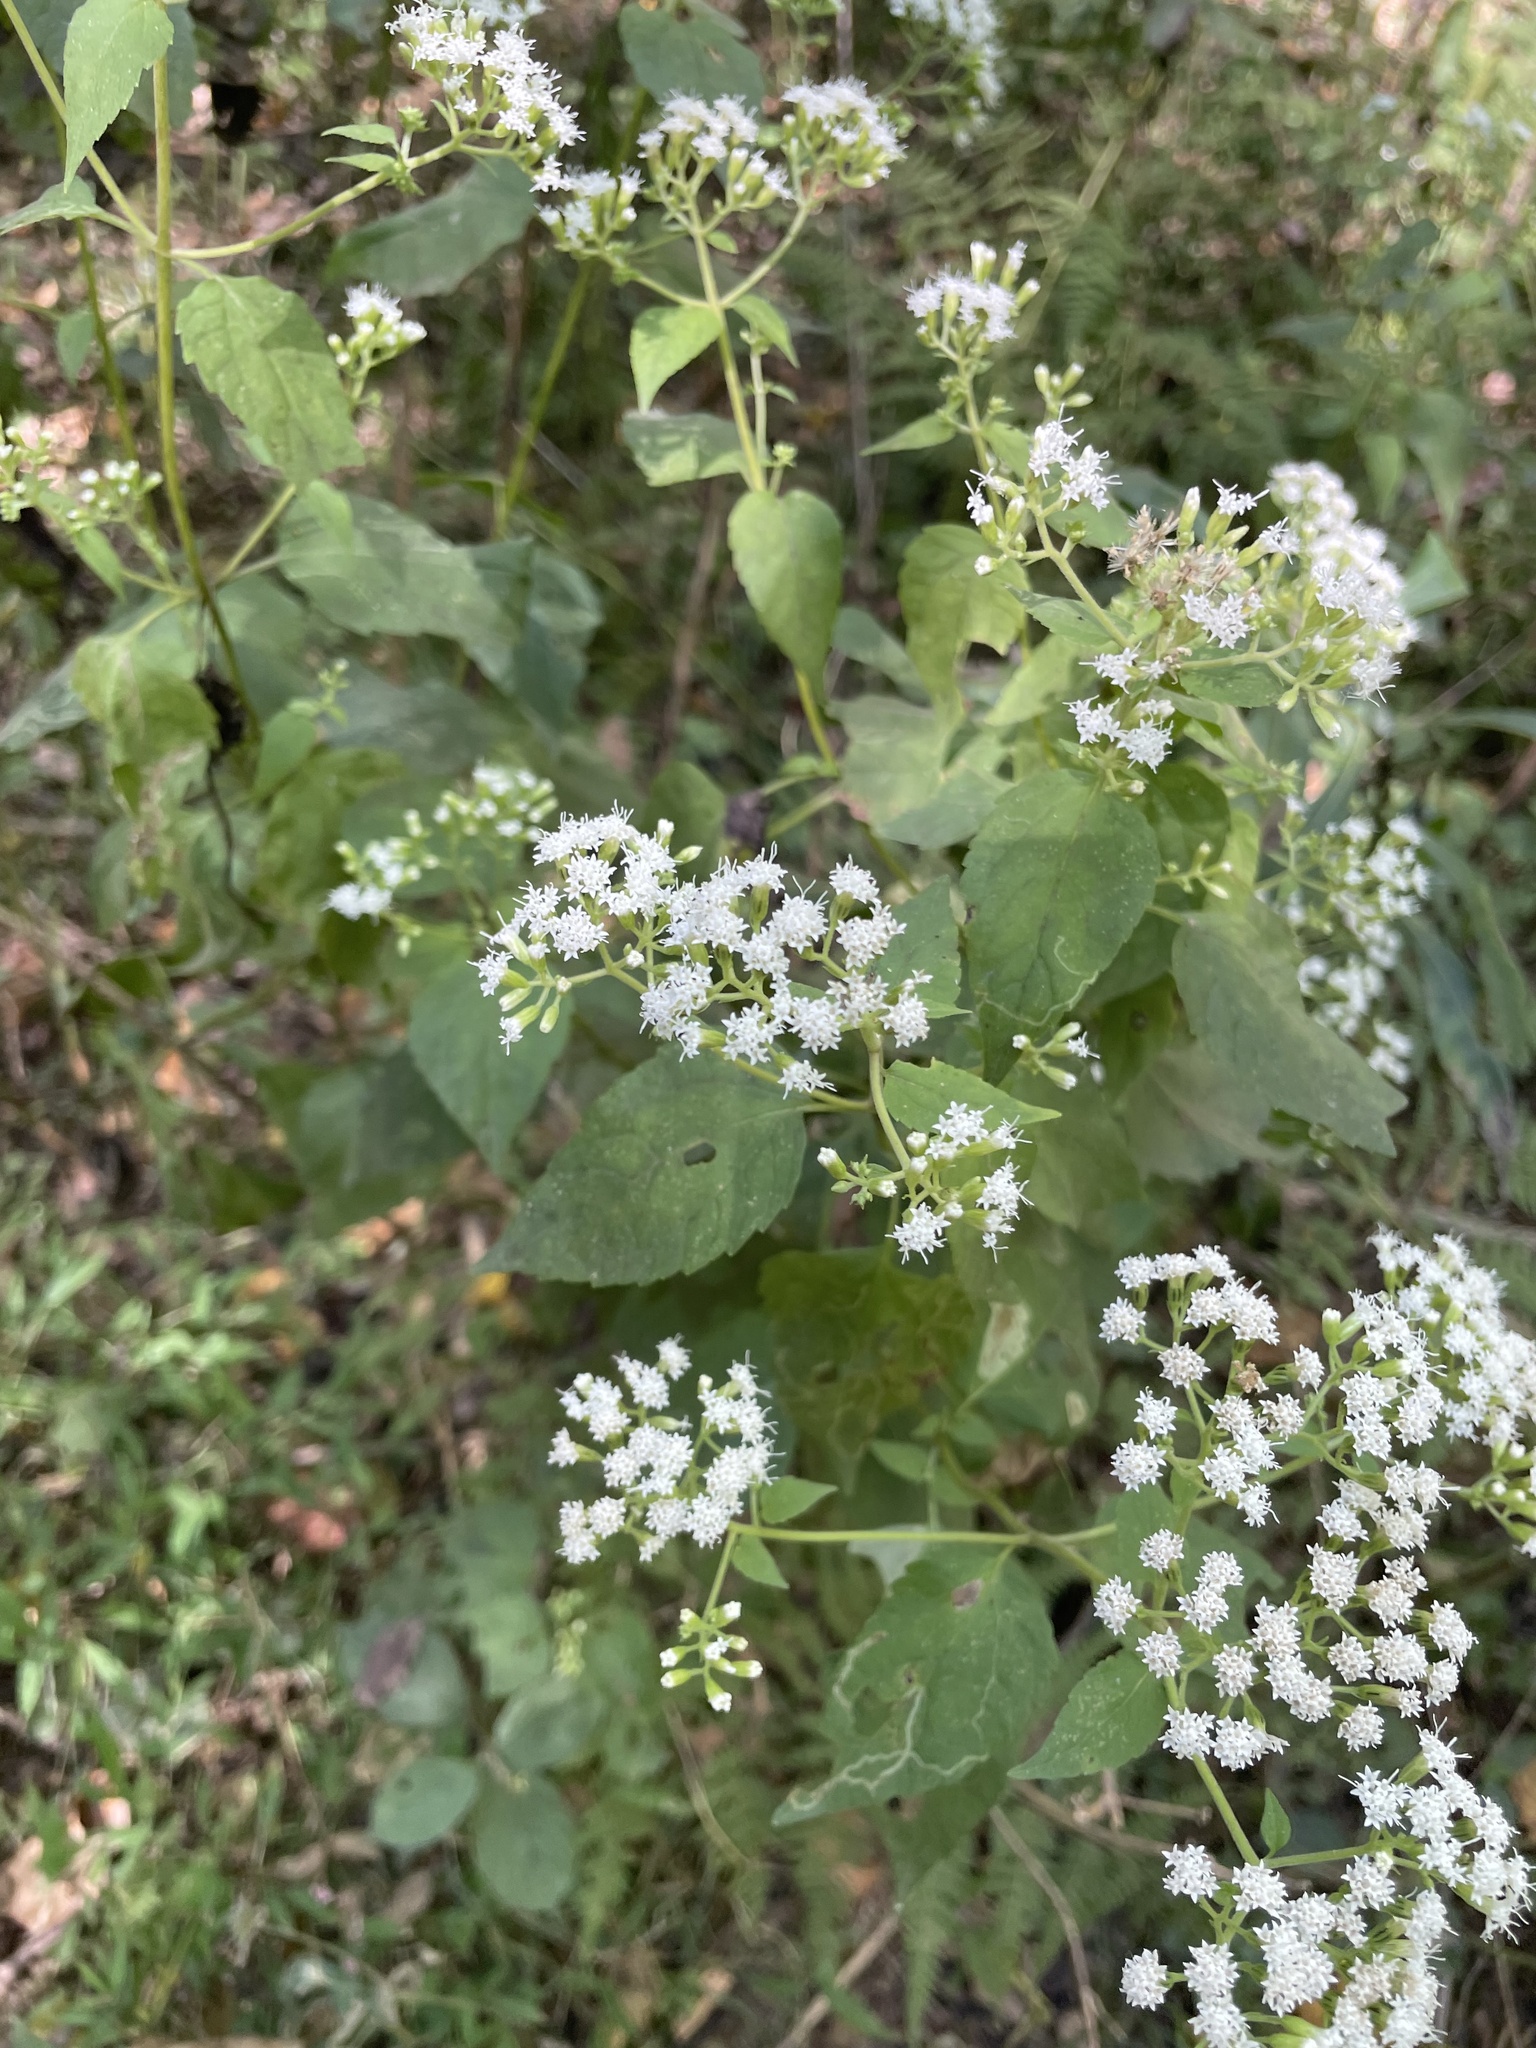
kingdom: Plantae
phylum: Tracheophyta
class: Magnoliopsida
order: Asterales
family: Asteraceae
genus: Ageratina
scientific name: Ageratina altissima
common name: White snakeroot
